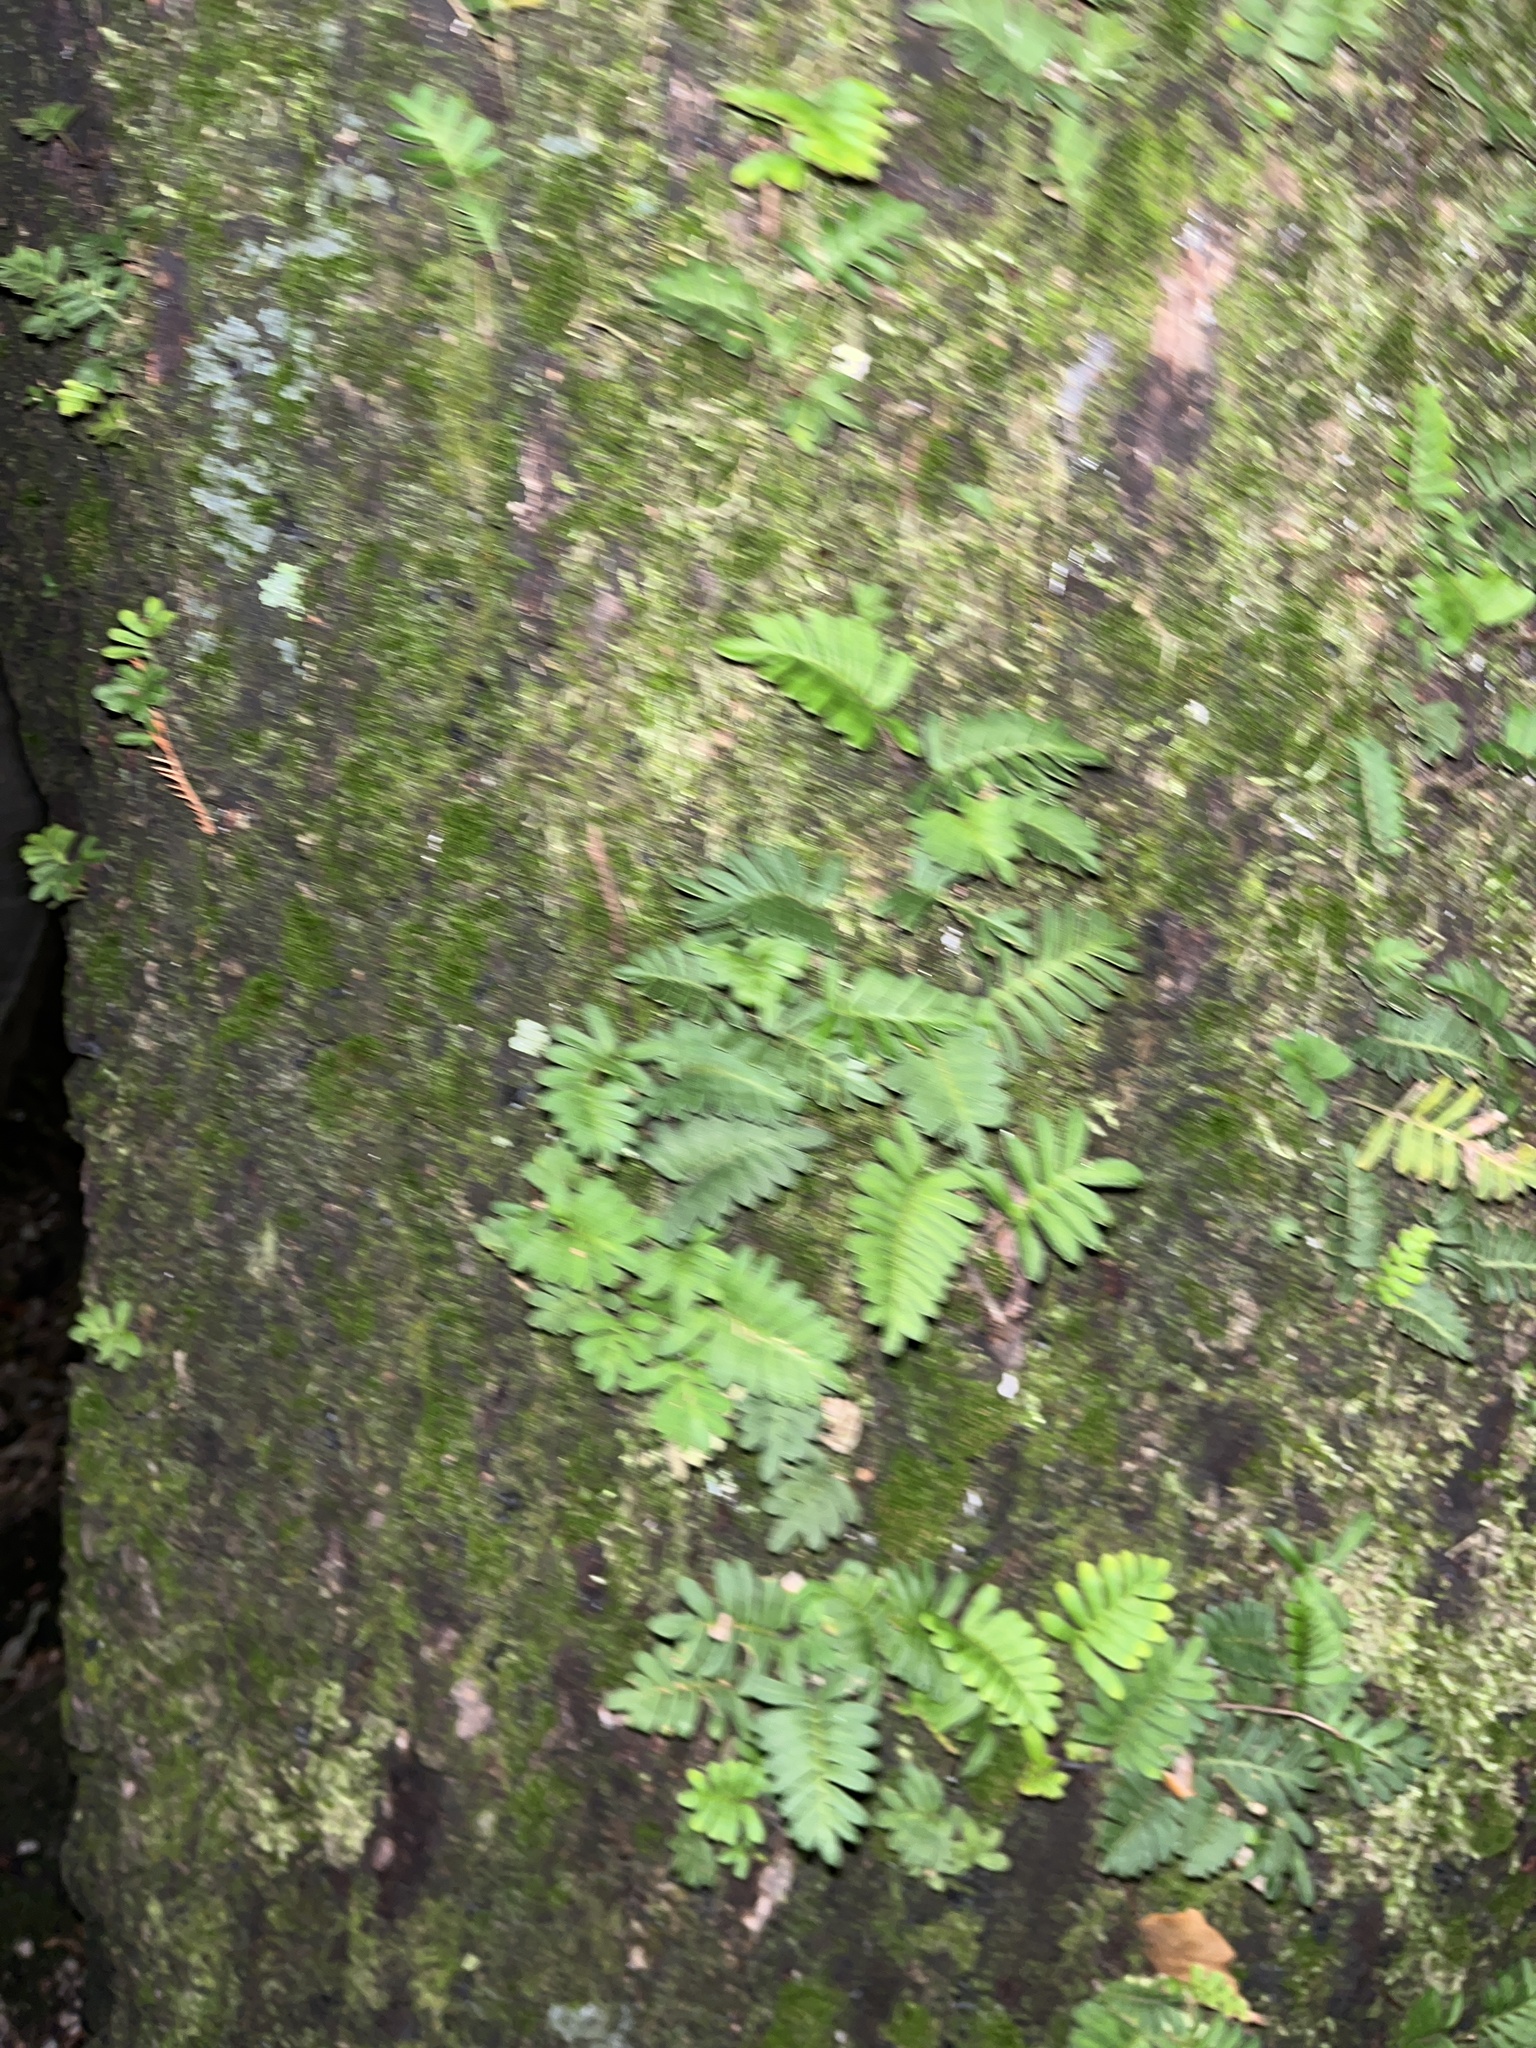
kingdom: Plantae
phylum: Tracheophyta
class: Polypodiopsida
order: Polypodiales
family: Polypodiaceae
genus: Pleopeltis
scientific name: Pleopeltis michauxiana
